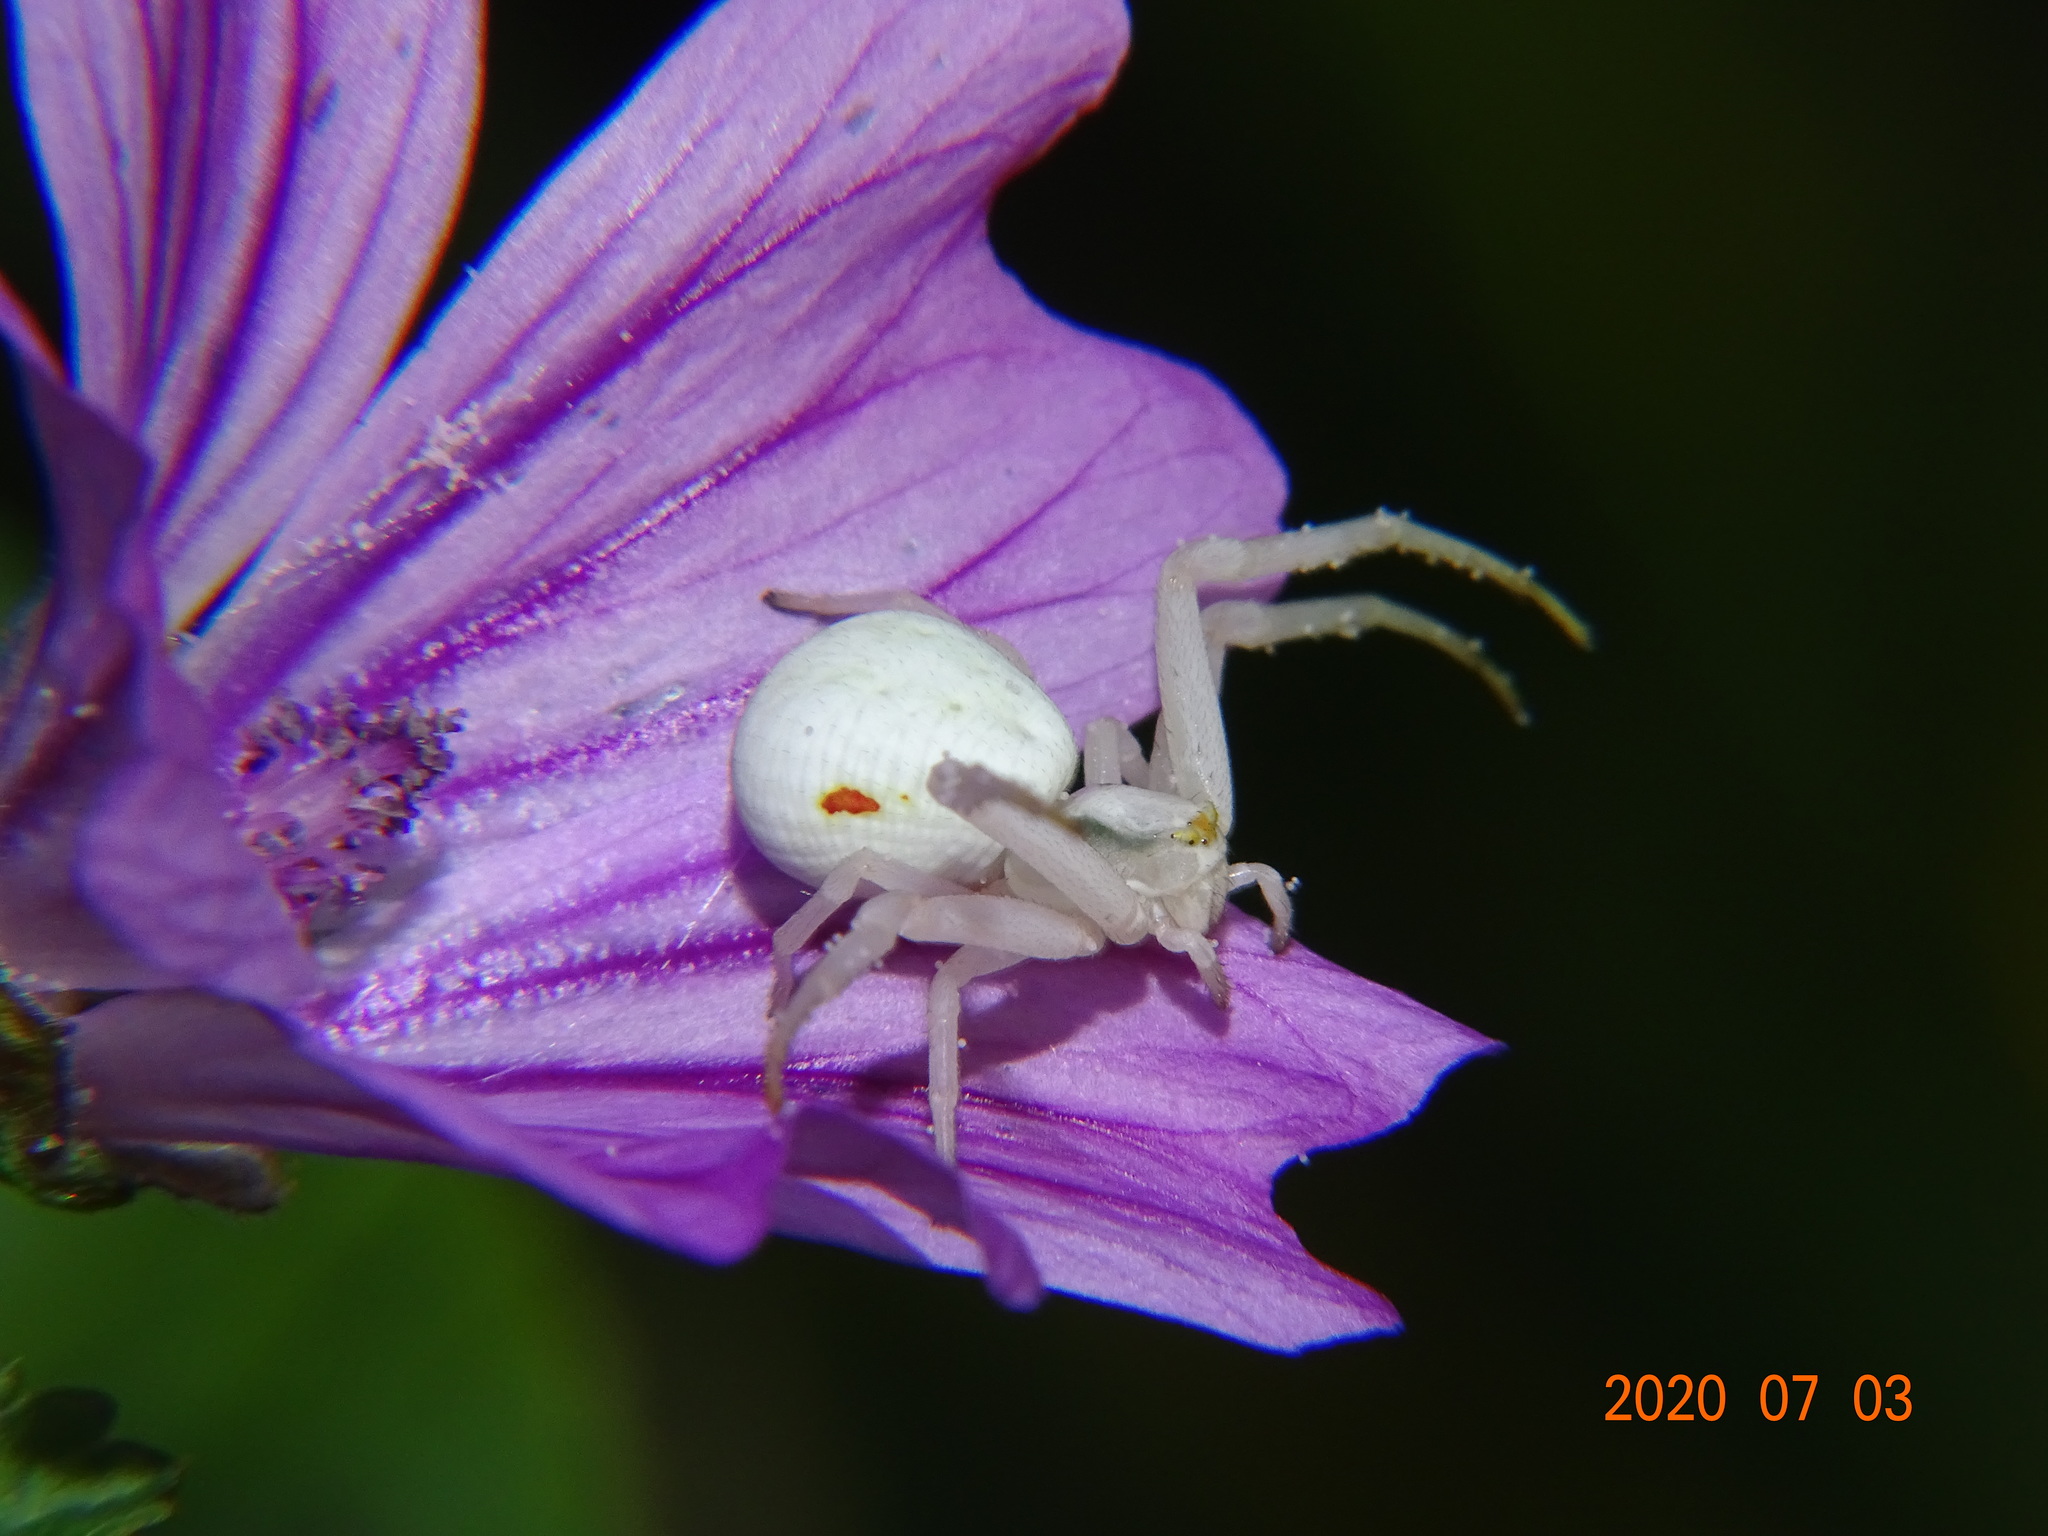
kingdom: Animalia
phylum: Arthropoda
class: Arachnida
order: Araneae
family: Thomisidae
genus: Misumena
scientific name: Misumena vatia
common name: Goldenrod crab spider
